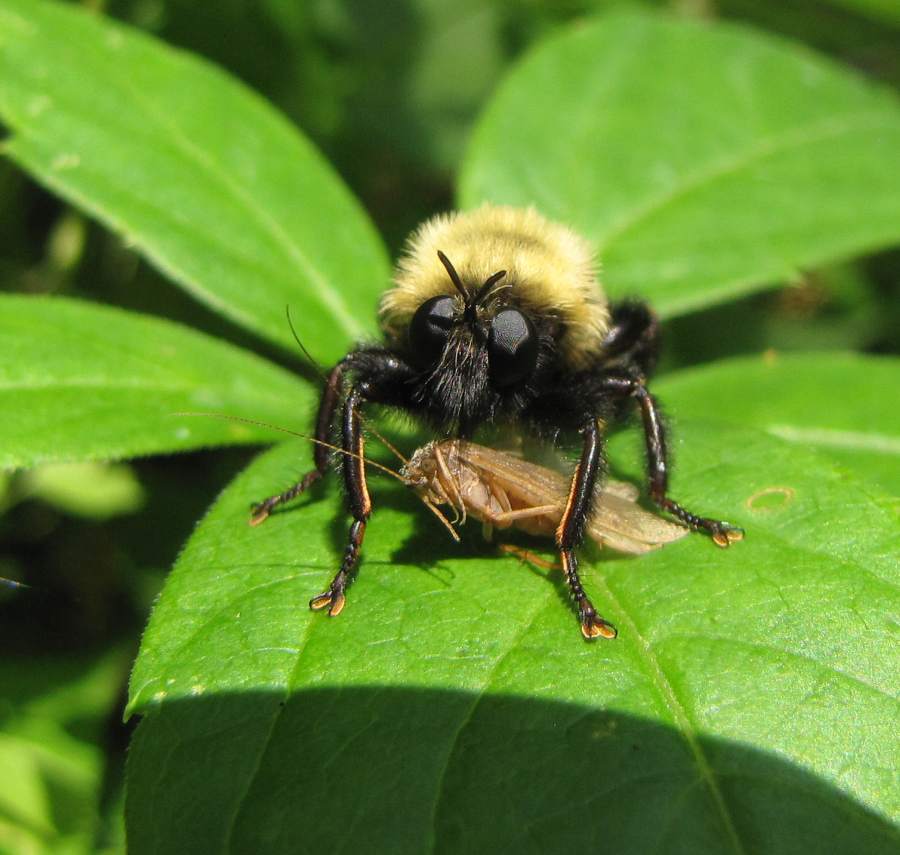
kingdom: Animalia
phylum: Arthropoda
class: Insecta
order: Diptera
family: Asilidae
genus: Laphria
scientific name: Laphria thoracica
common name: Bumble bee mimic robber fly
